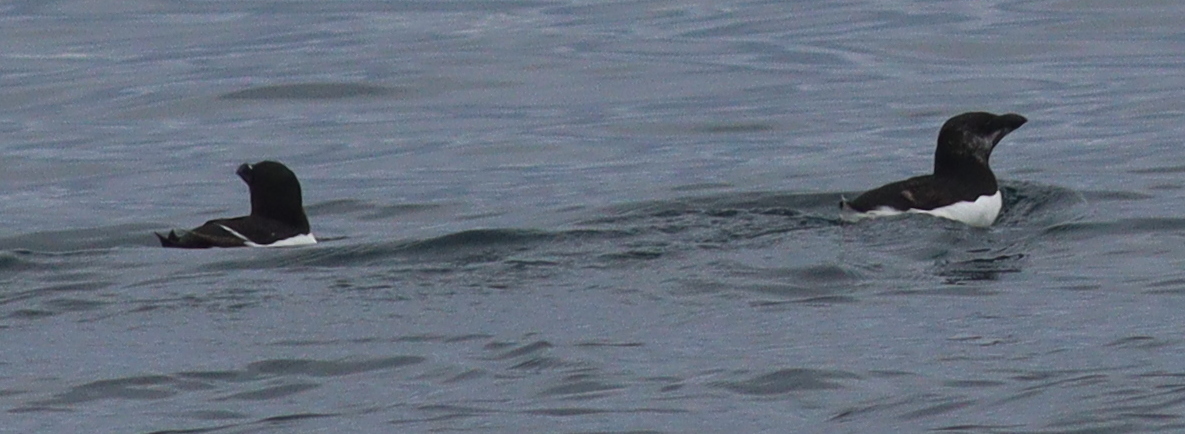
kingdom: Animalia
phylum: Chordata
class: Aves
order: Charadriiformes
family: Alcidae
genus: Alca
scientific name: Alca torda
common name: Razorbill
